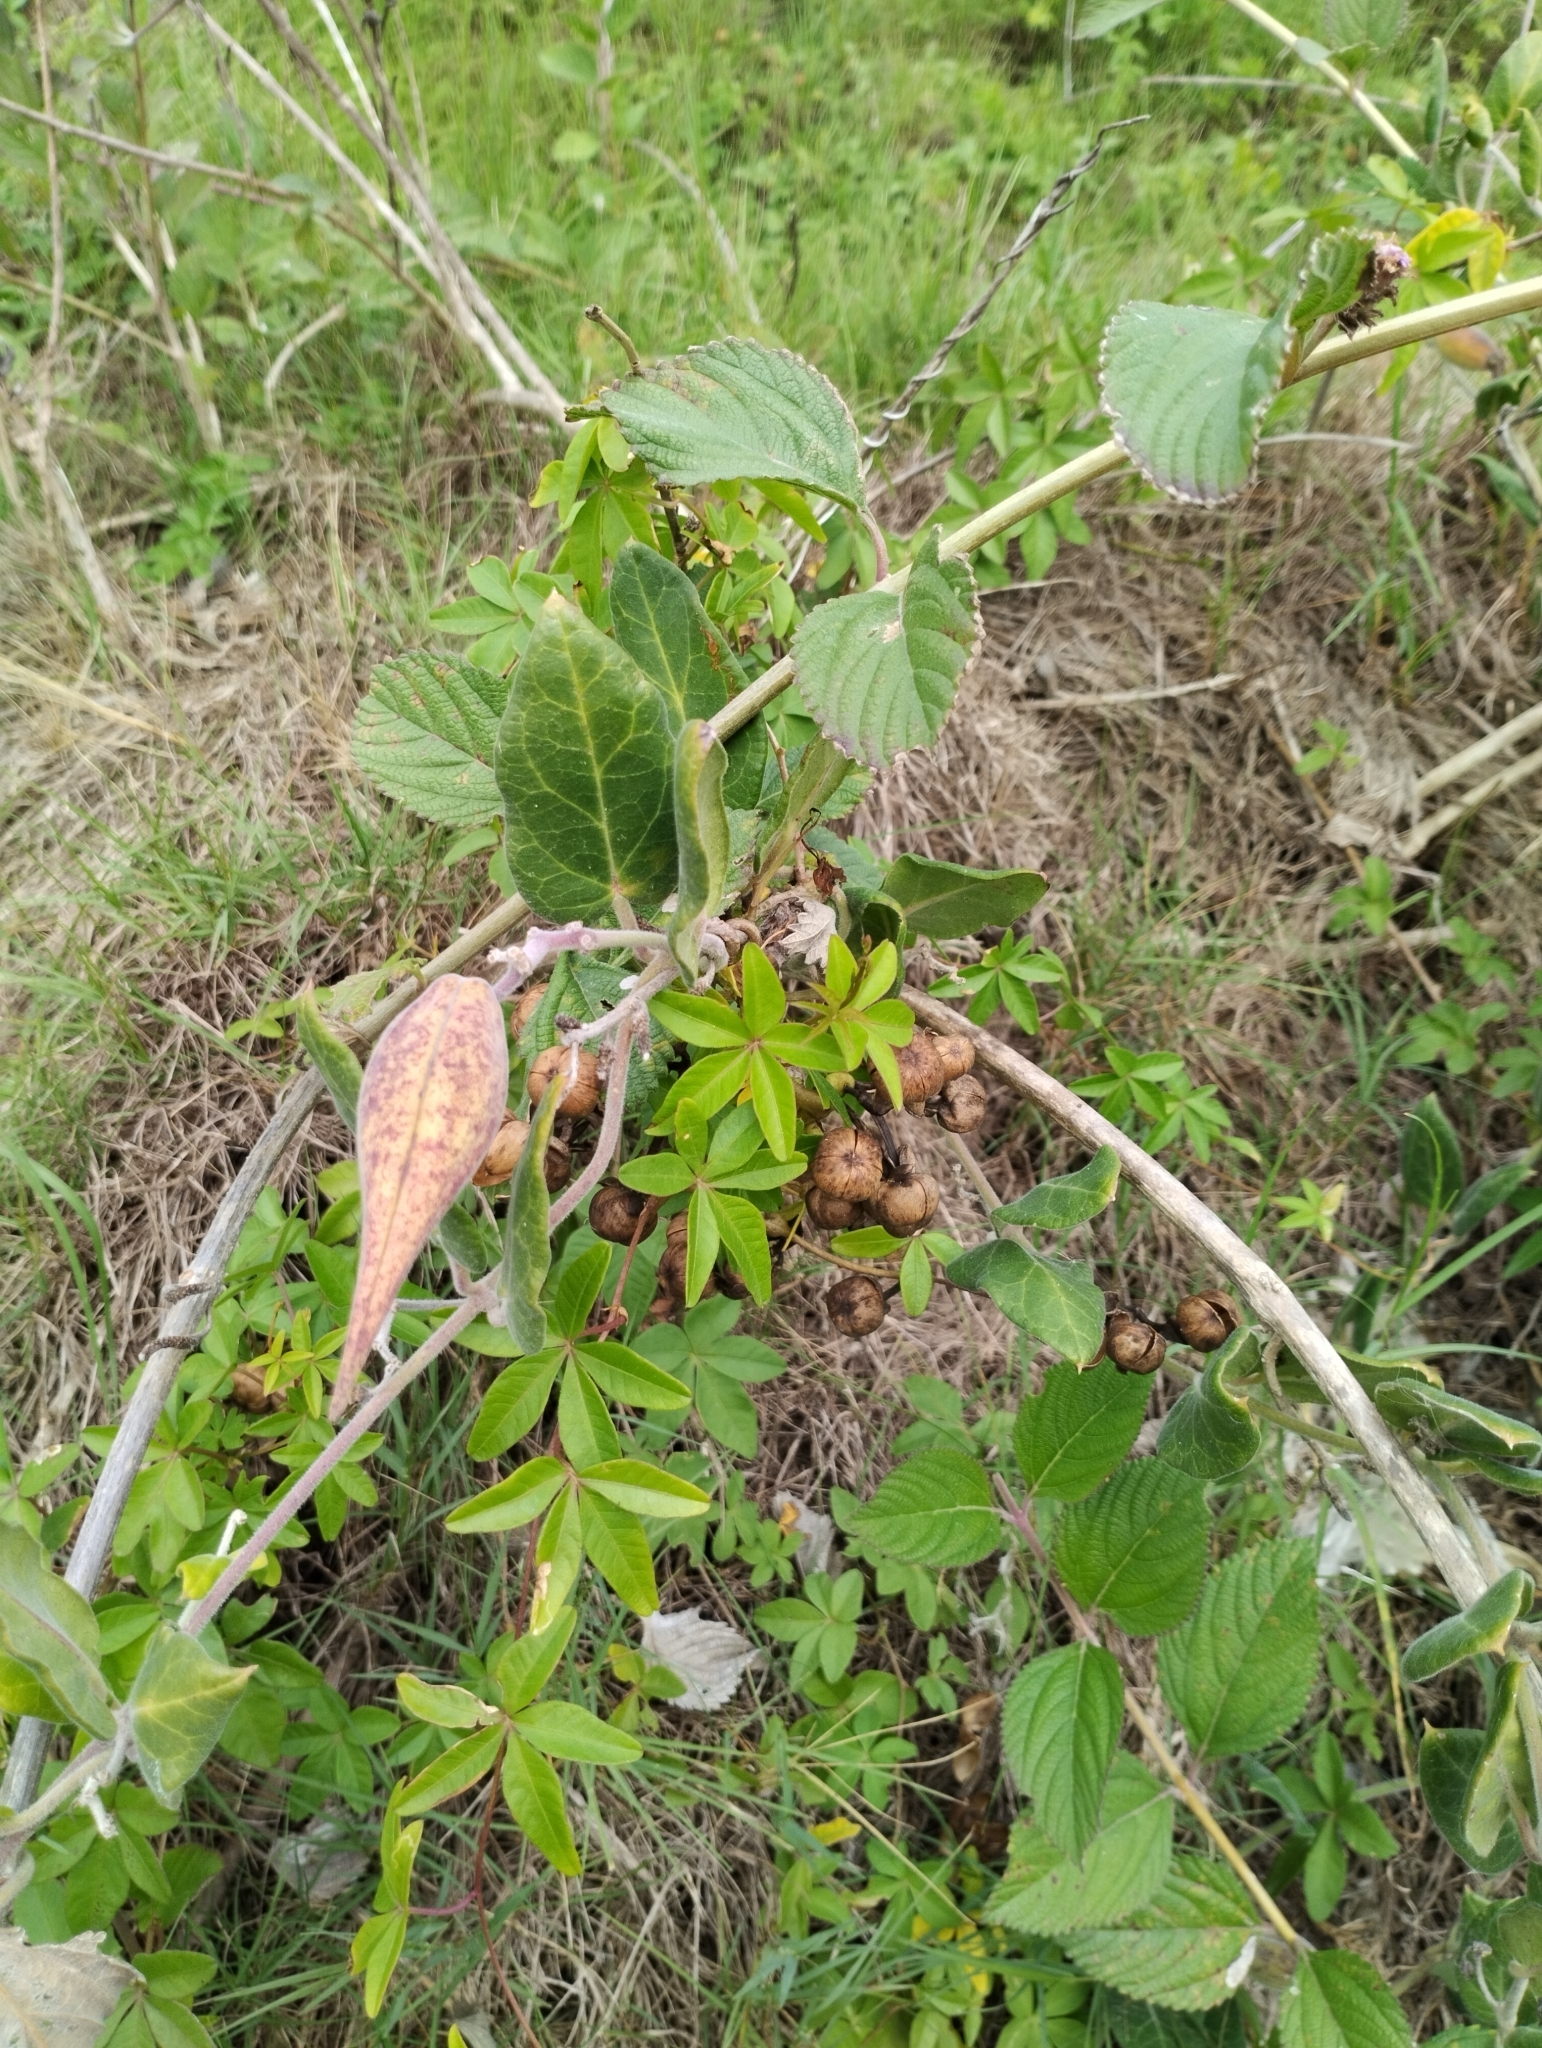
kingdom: Plantae
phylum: Tracheophyta
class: Magnoliopsida
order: Gentianales
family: Apocynaceae
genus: Oxypetalum
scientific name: Oxypetalum tomentosum
